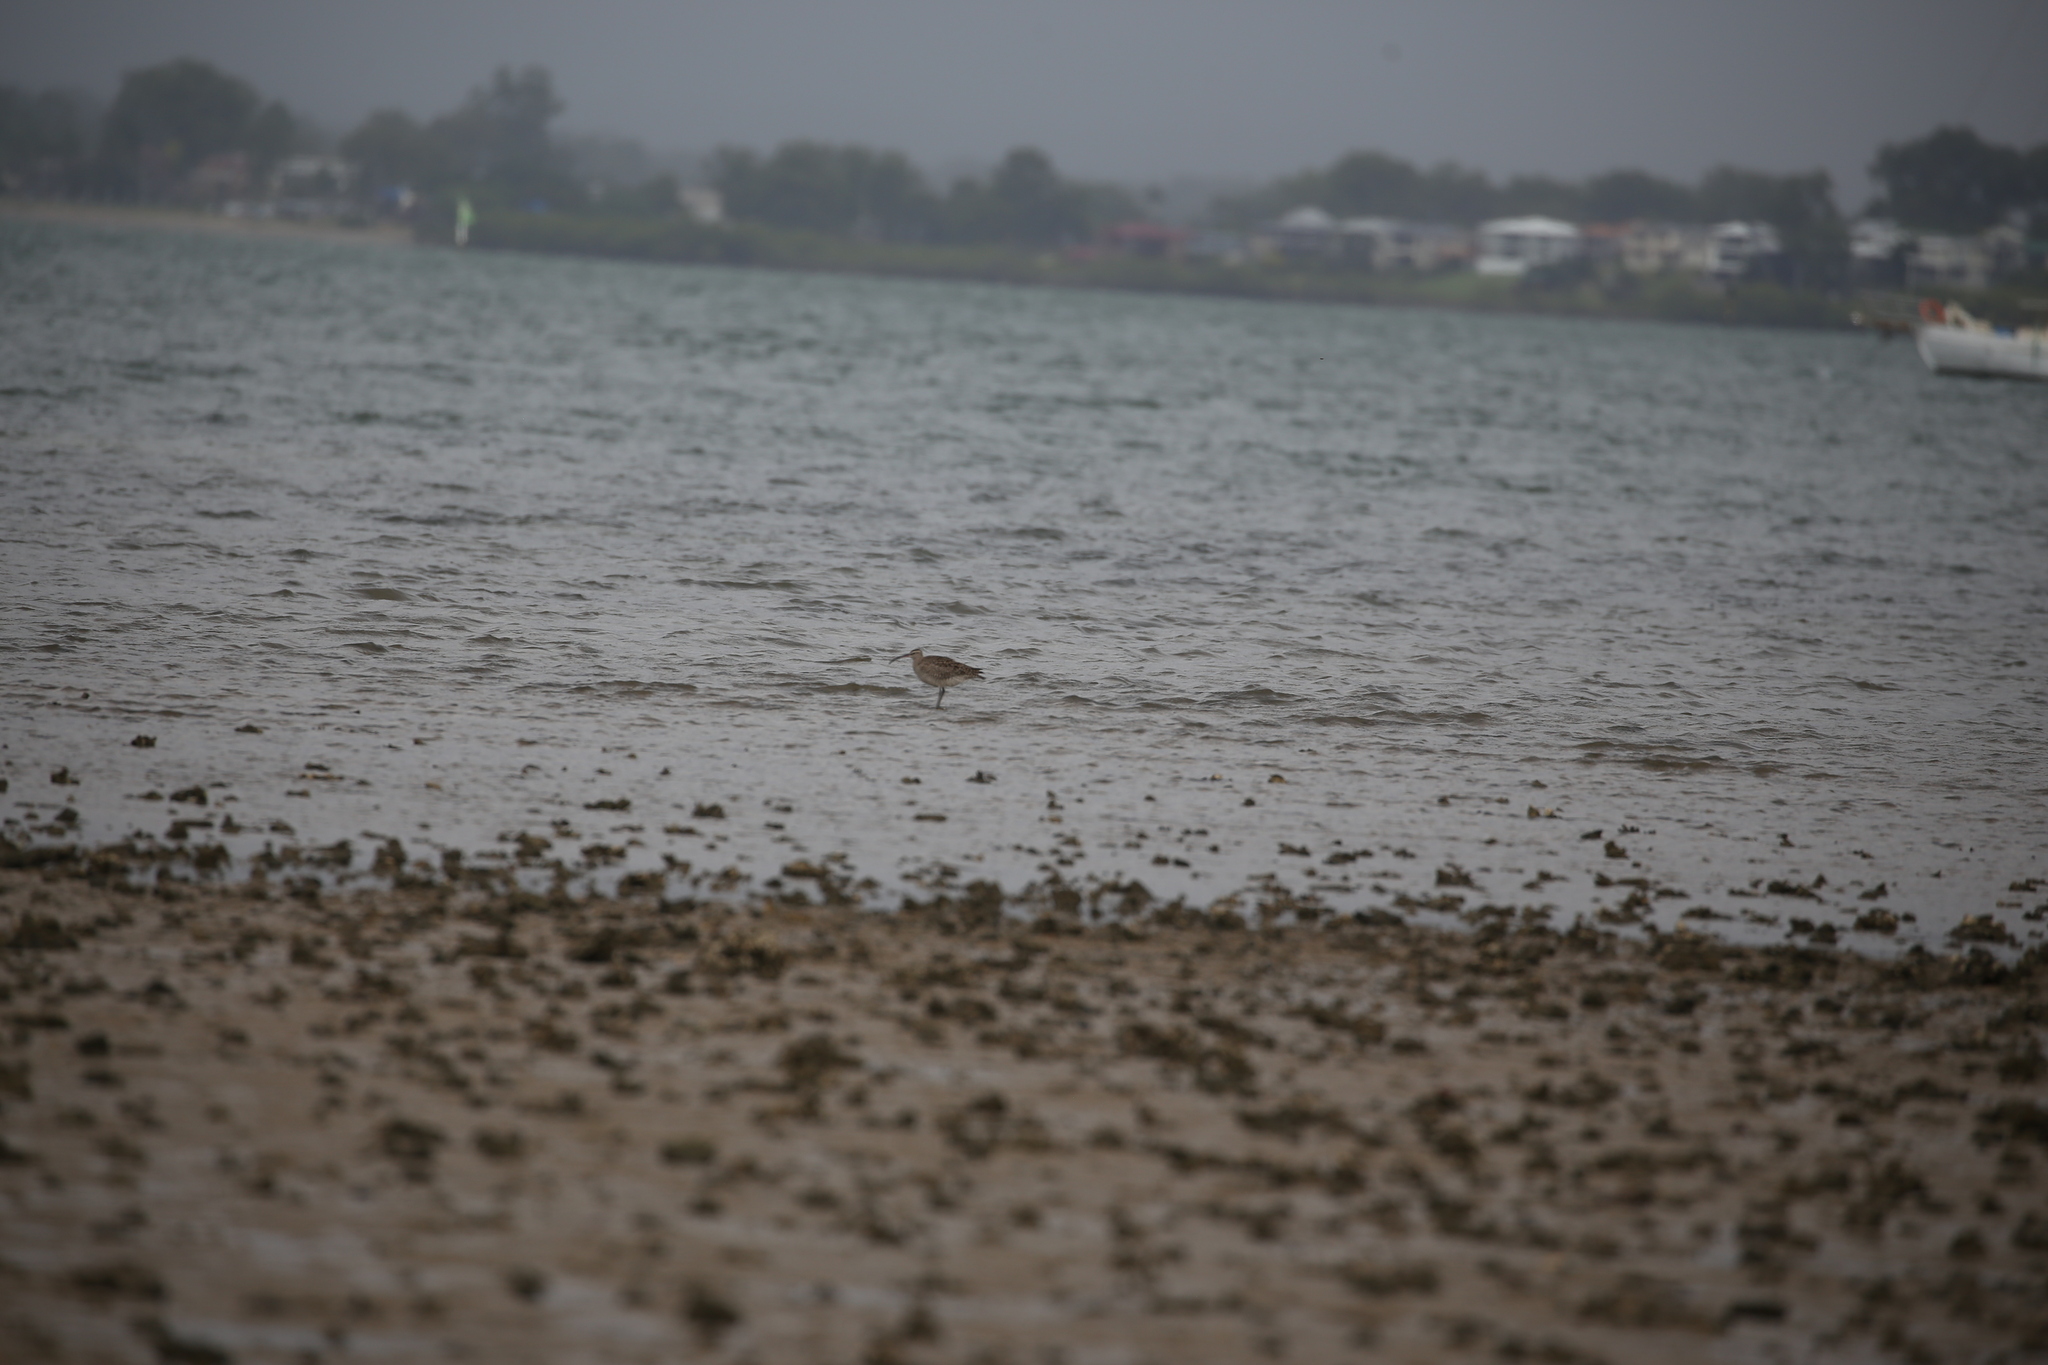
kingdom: Animalia
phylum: Chordata
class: Aves
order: Charadriiformes
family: Scolopacidae
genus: Numenius
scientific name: Numenius phaeopus
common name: Whimbrel
